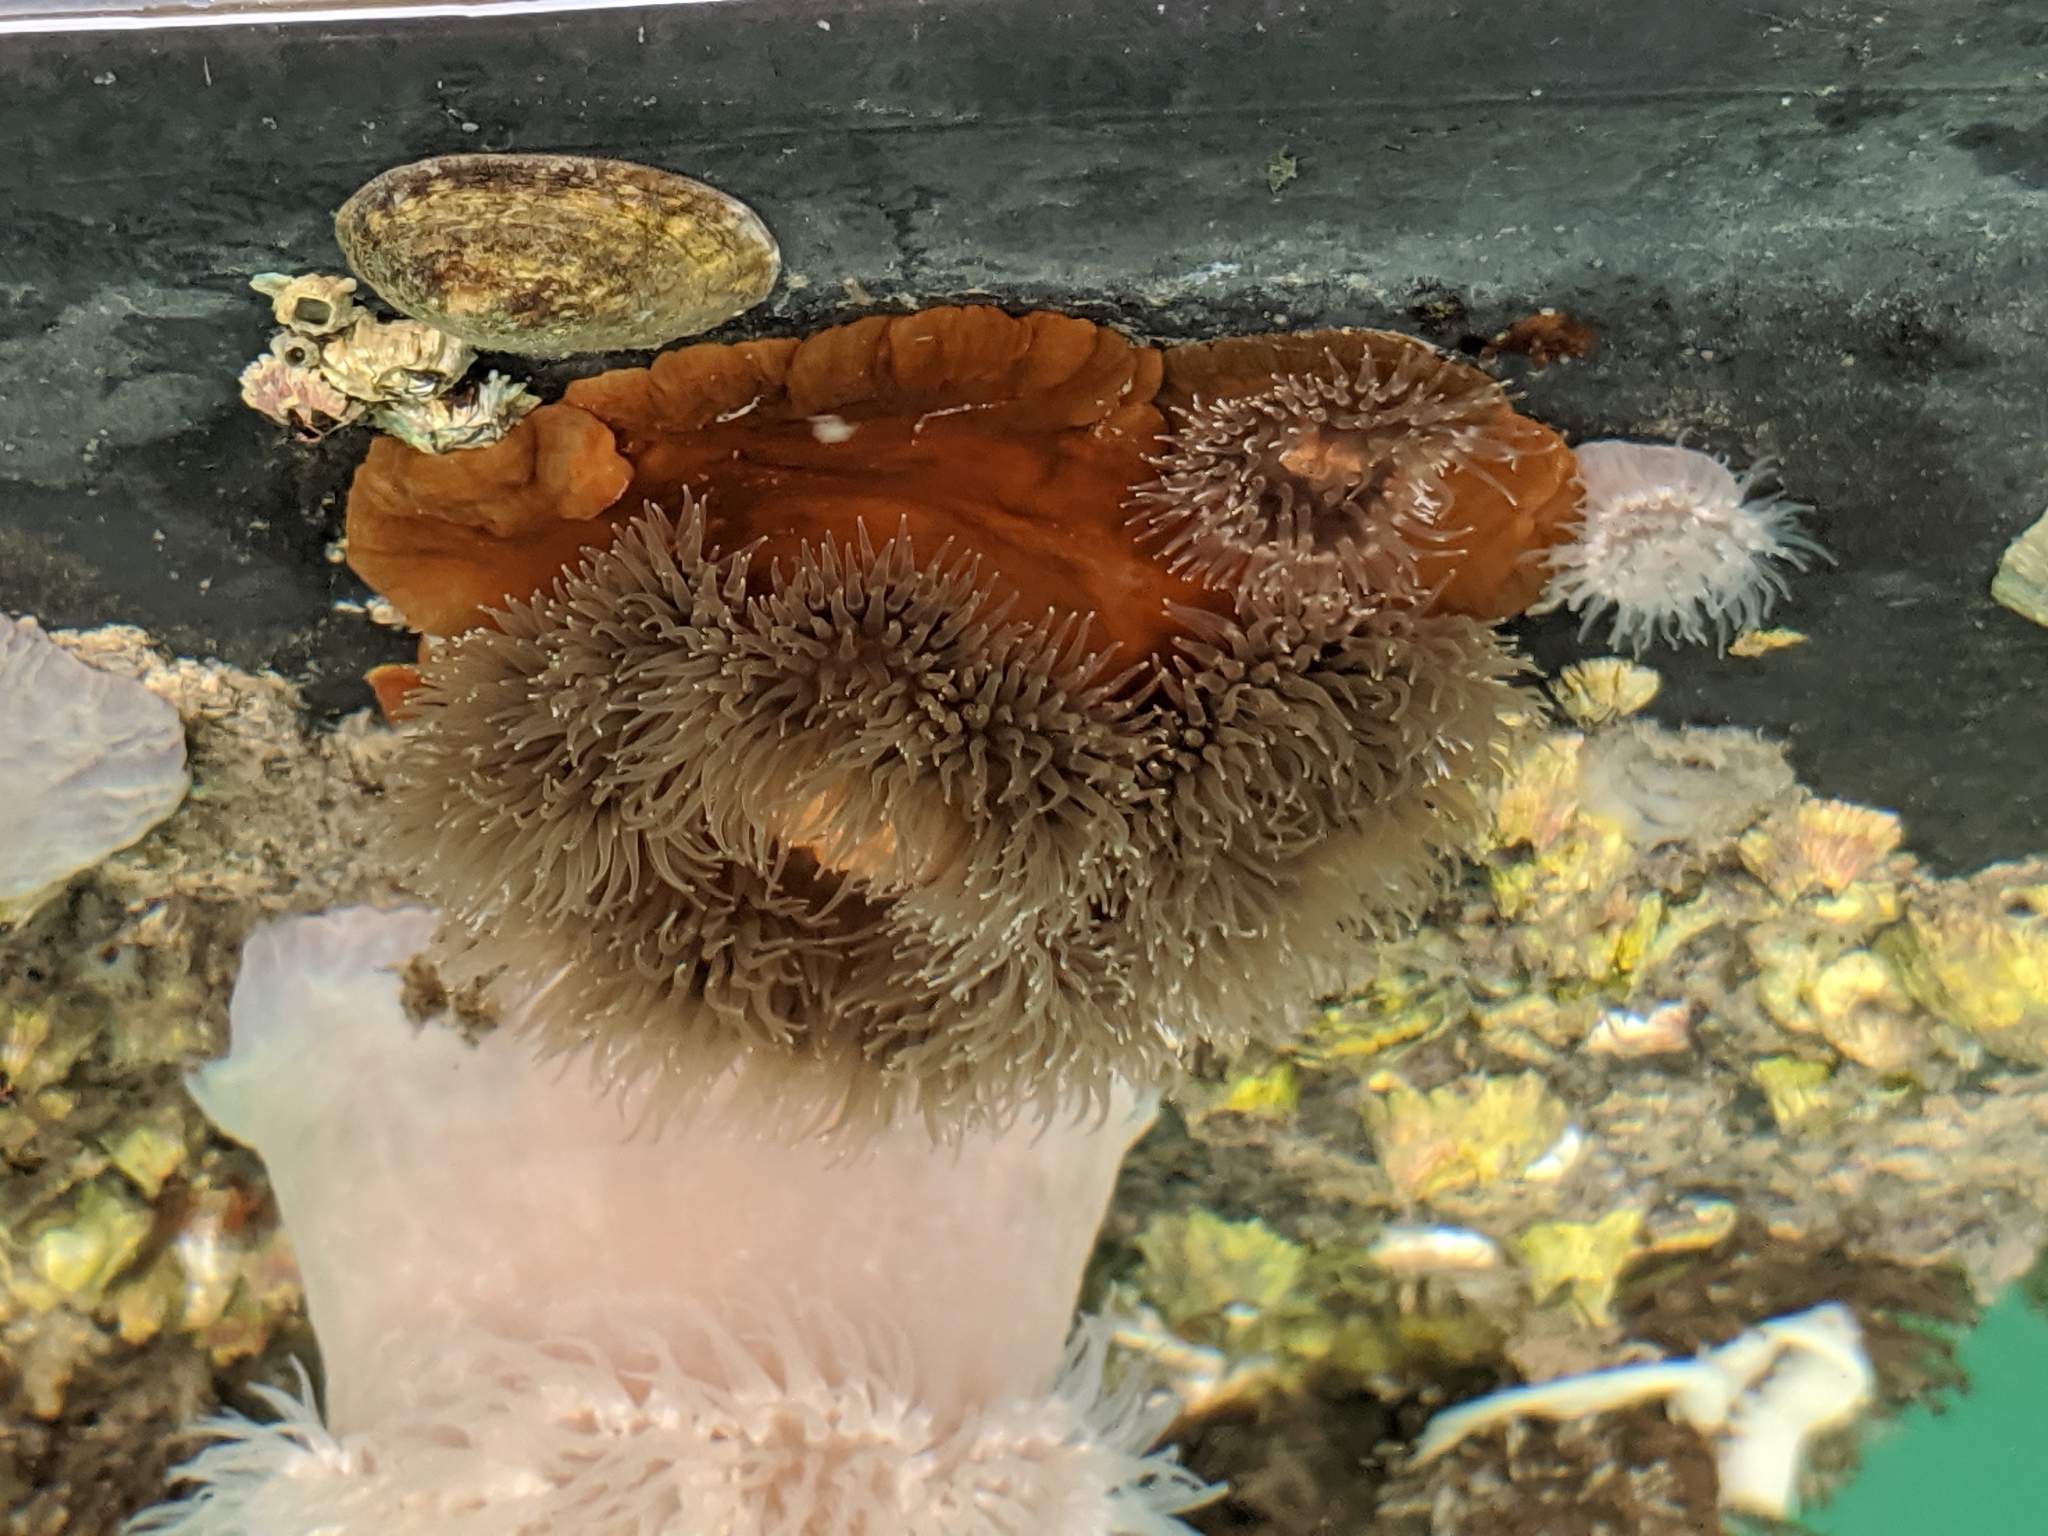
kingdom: Animalia
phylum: Cnidaria
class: Anthozoa
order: Actiniaria
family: Metridiidae
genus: Metridium
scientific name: Metridium senile
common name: Clonal plumose anemone
